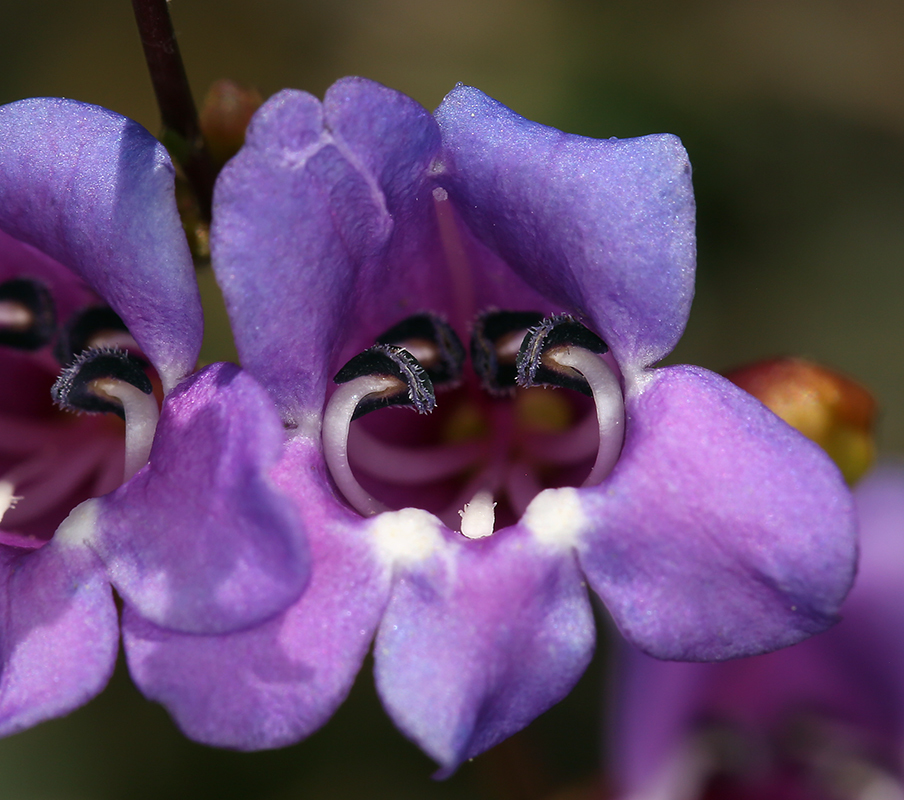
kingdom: Plantae
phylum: Tracheophyta
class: Magnoliopsida
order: Lamiales
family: Plantaginaceae
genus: Penstemon
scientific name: Penstemon parvulus
